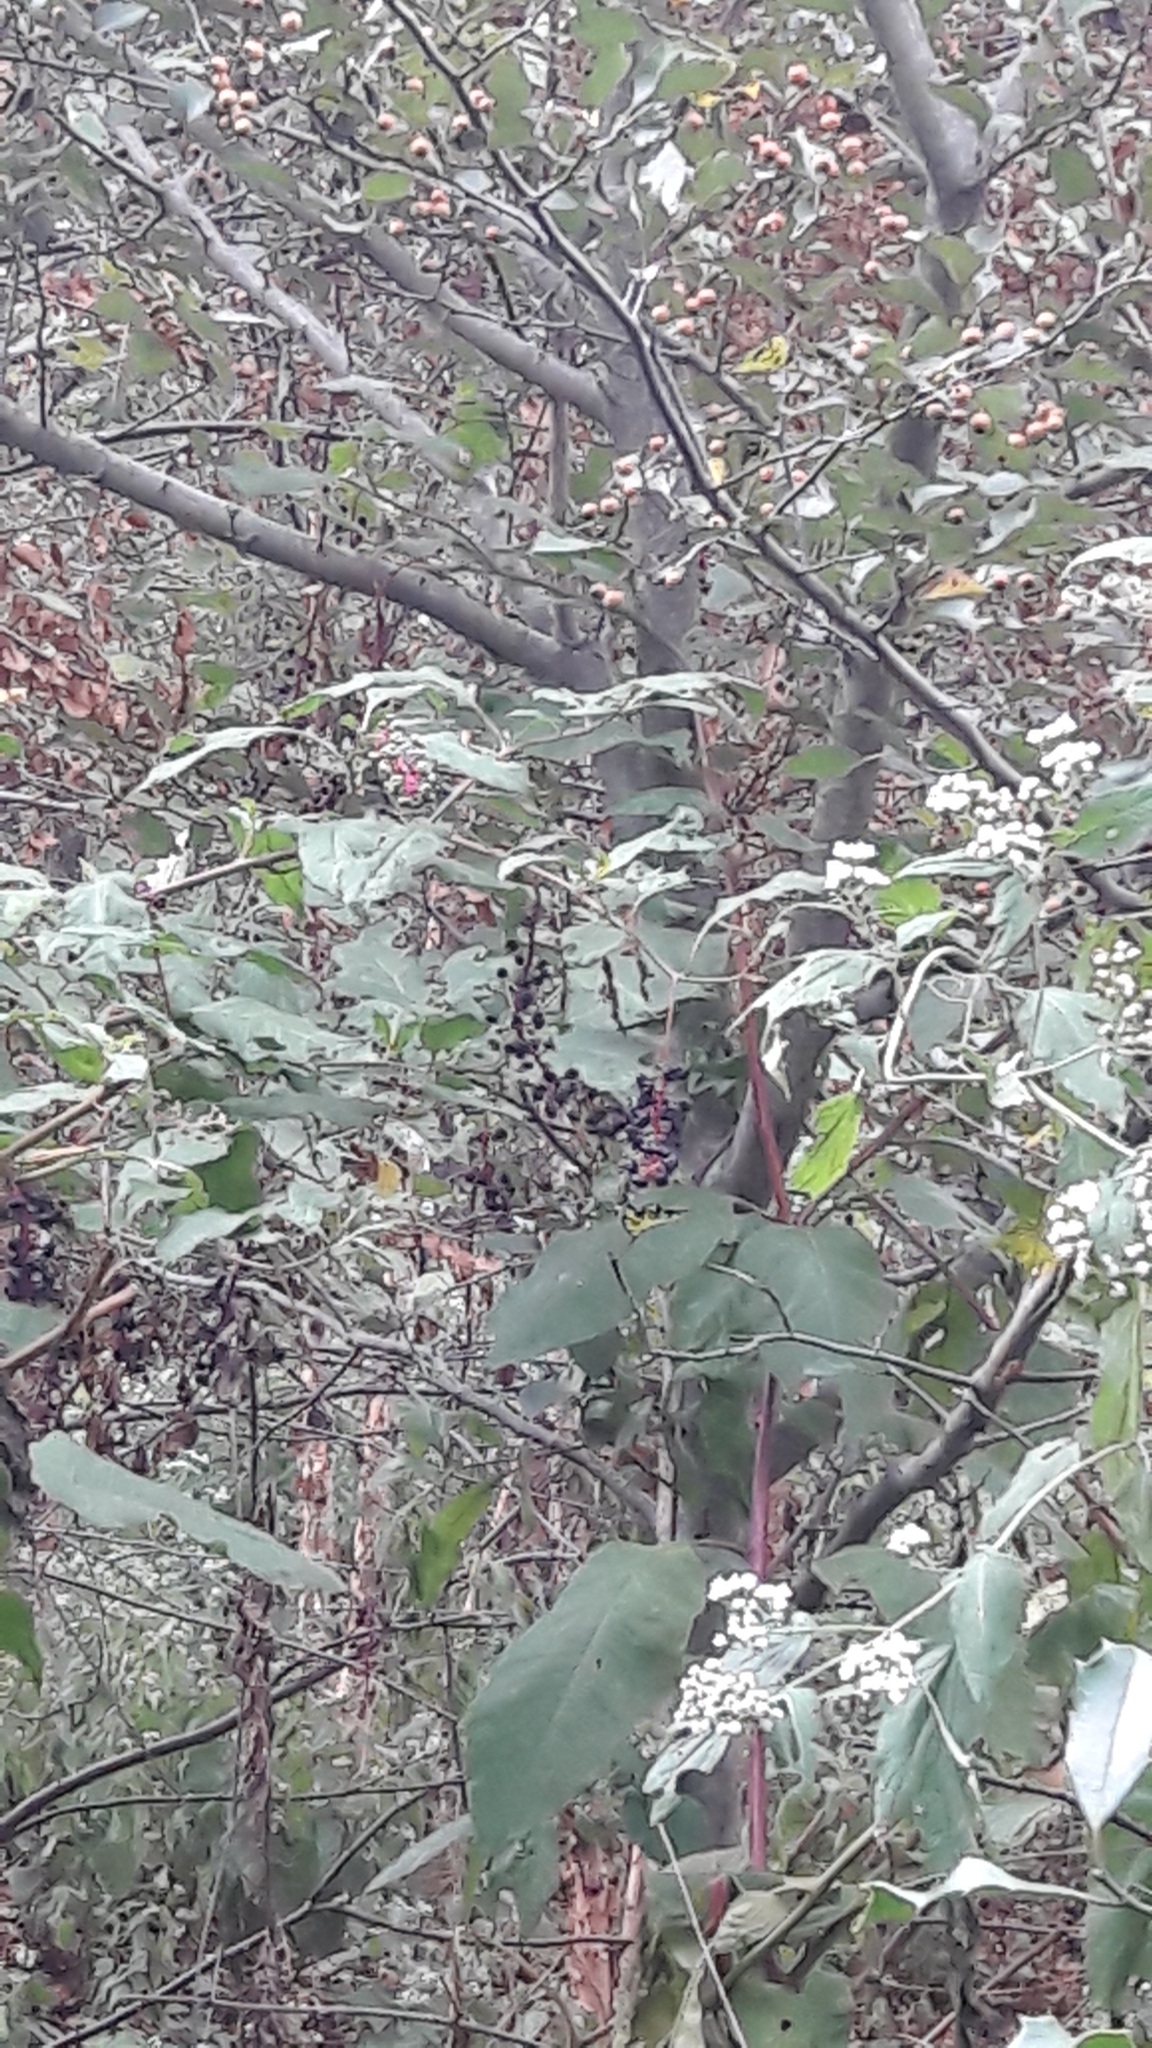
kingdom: Plantae
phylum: Tracheophyta
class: Magnoliopsida
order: Caryophyllales
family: Phytolaccaceae
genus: Phytolacca
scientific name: Phytolacca americana
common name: American pokeweed
